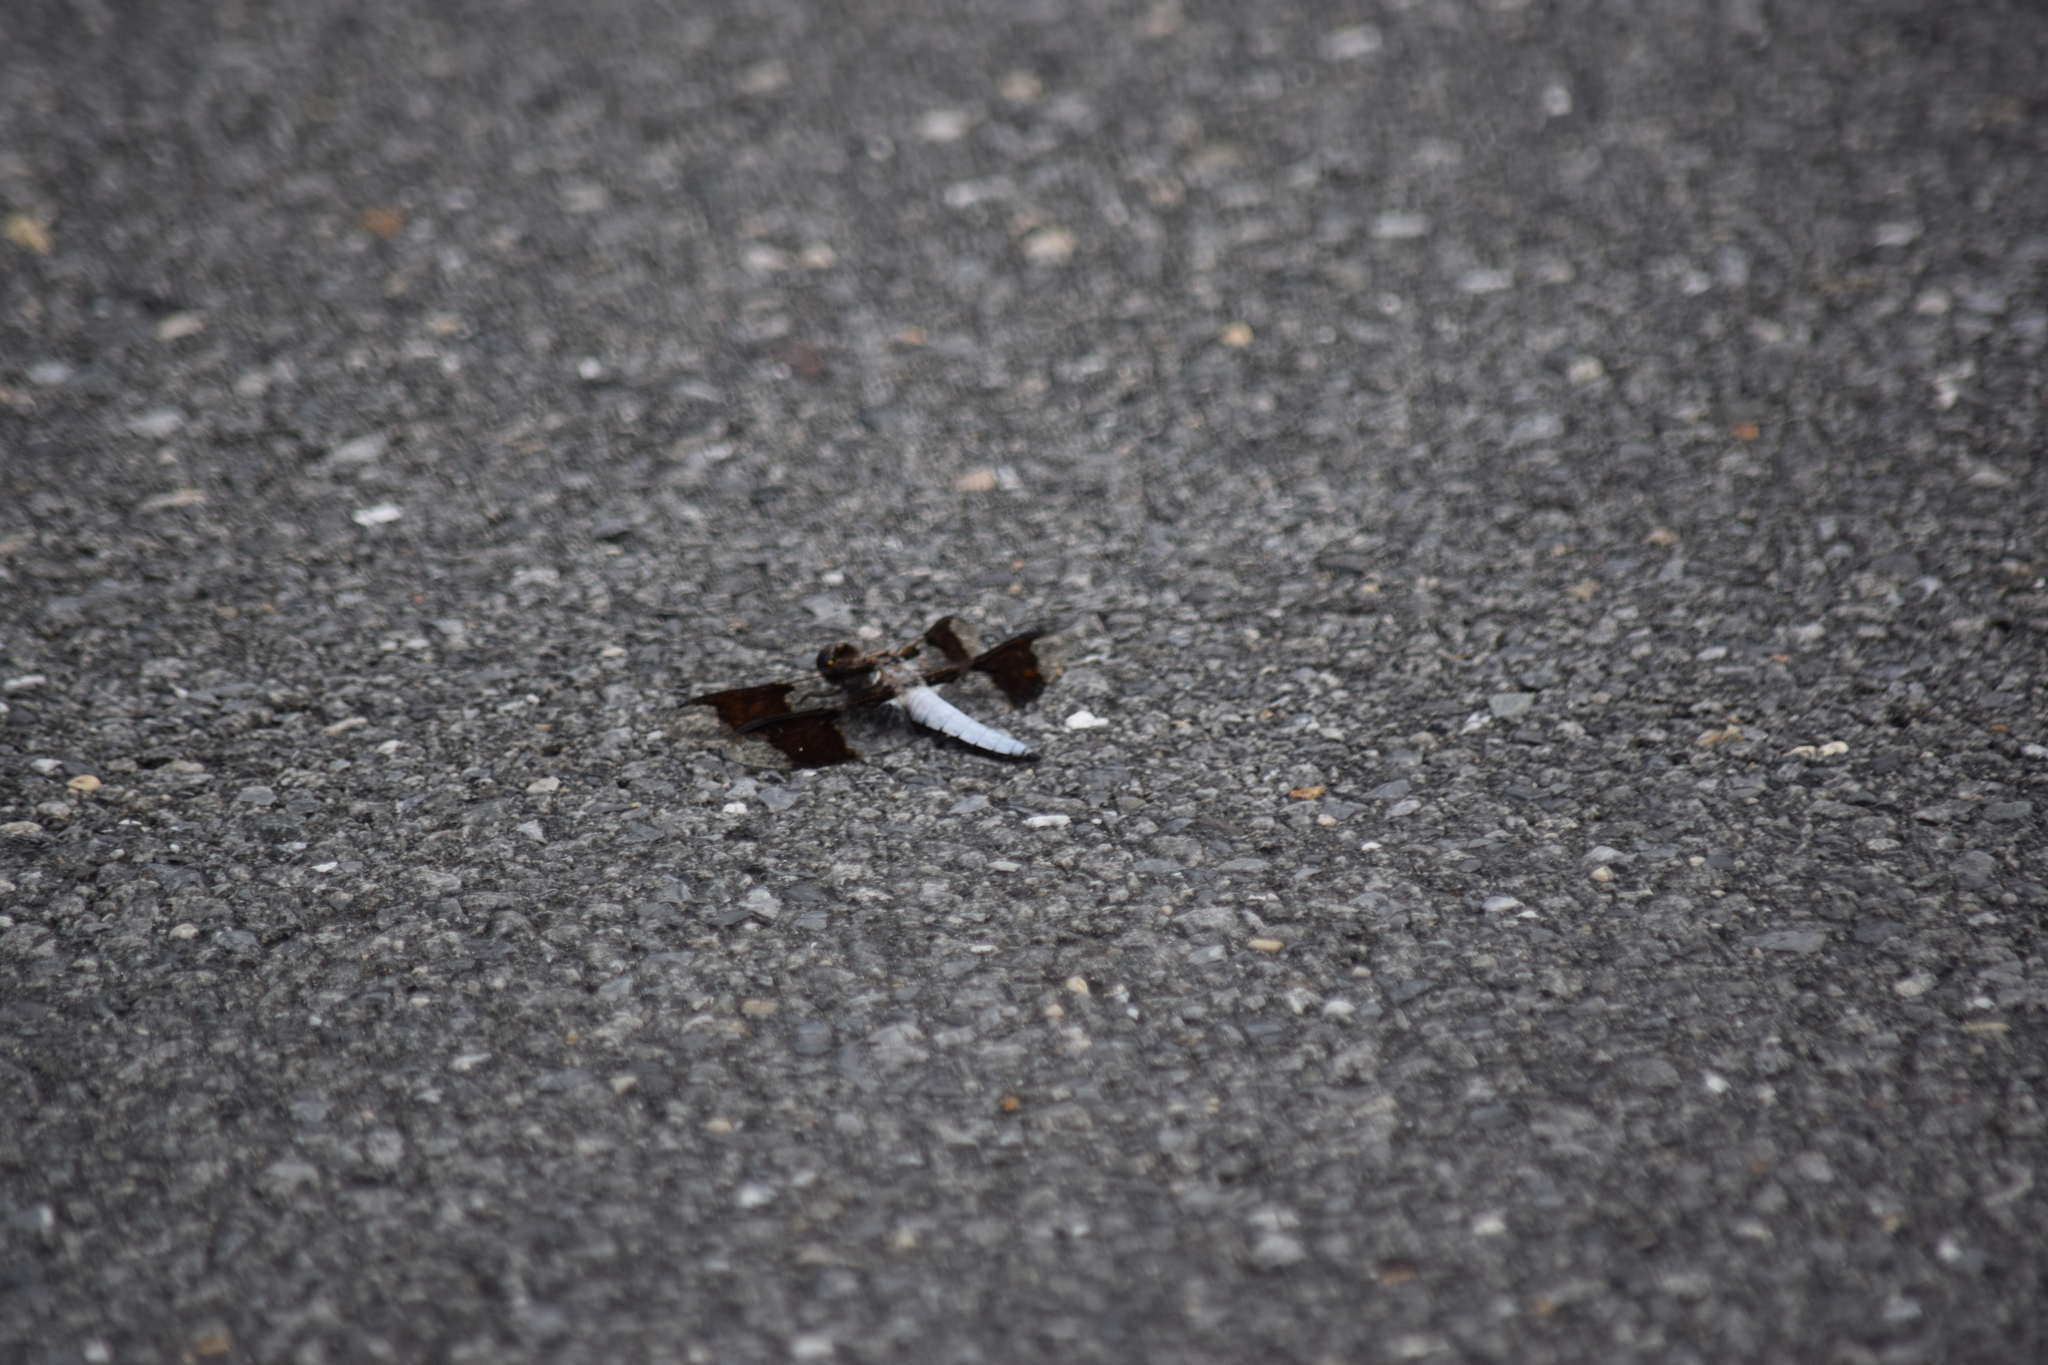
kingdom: Animalia
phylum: Arthropoda
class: Insecta
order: Odonata
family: Libellulidae
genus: Plathemis
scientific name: Plathemis lydia
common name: Common whitetail
